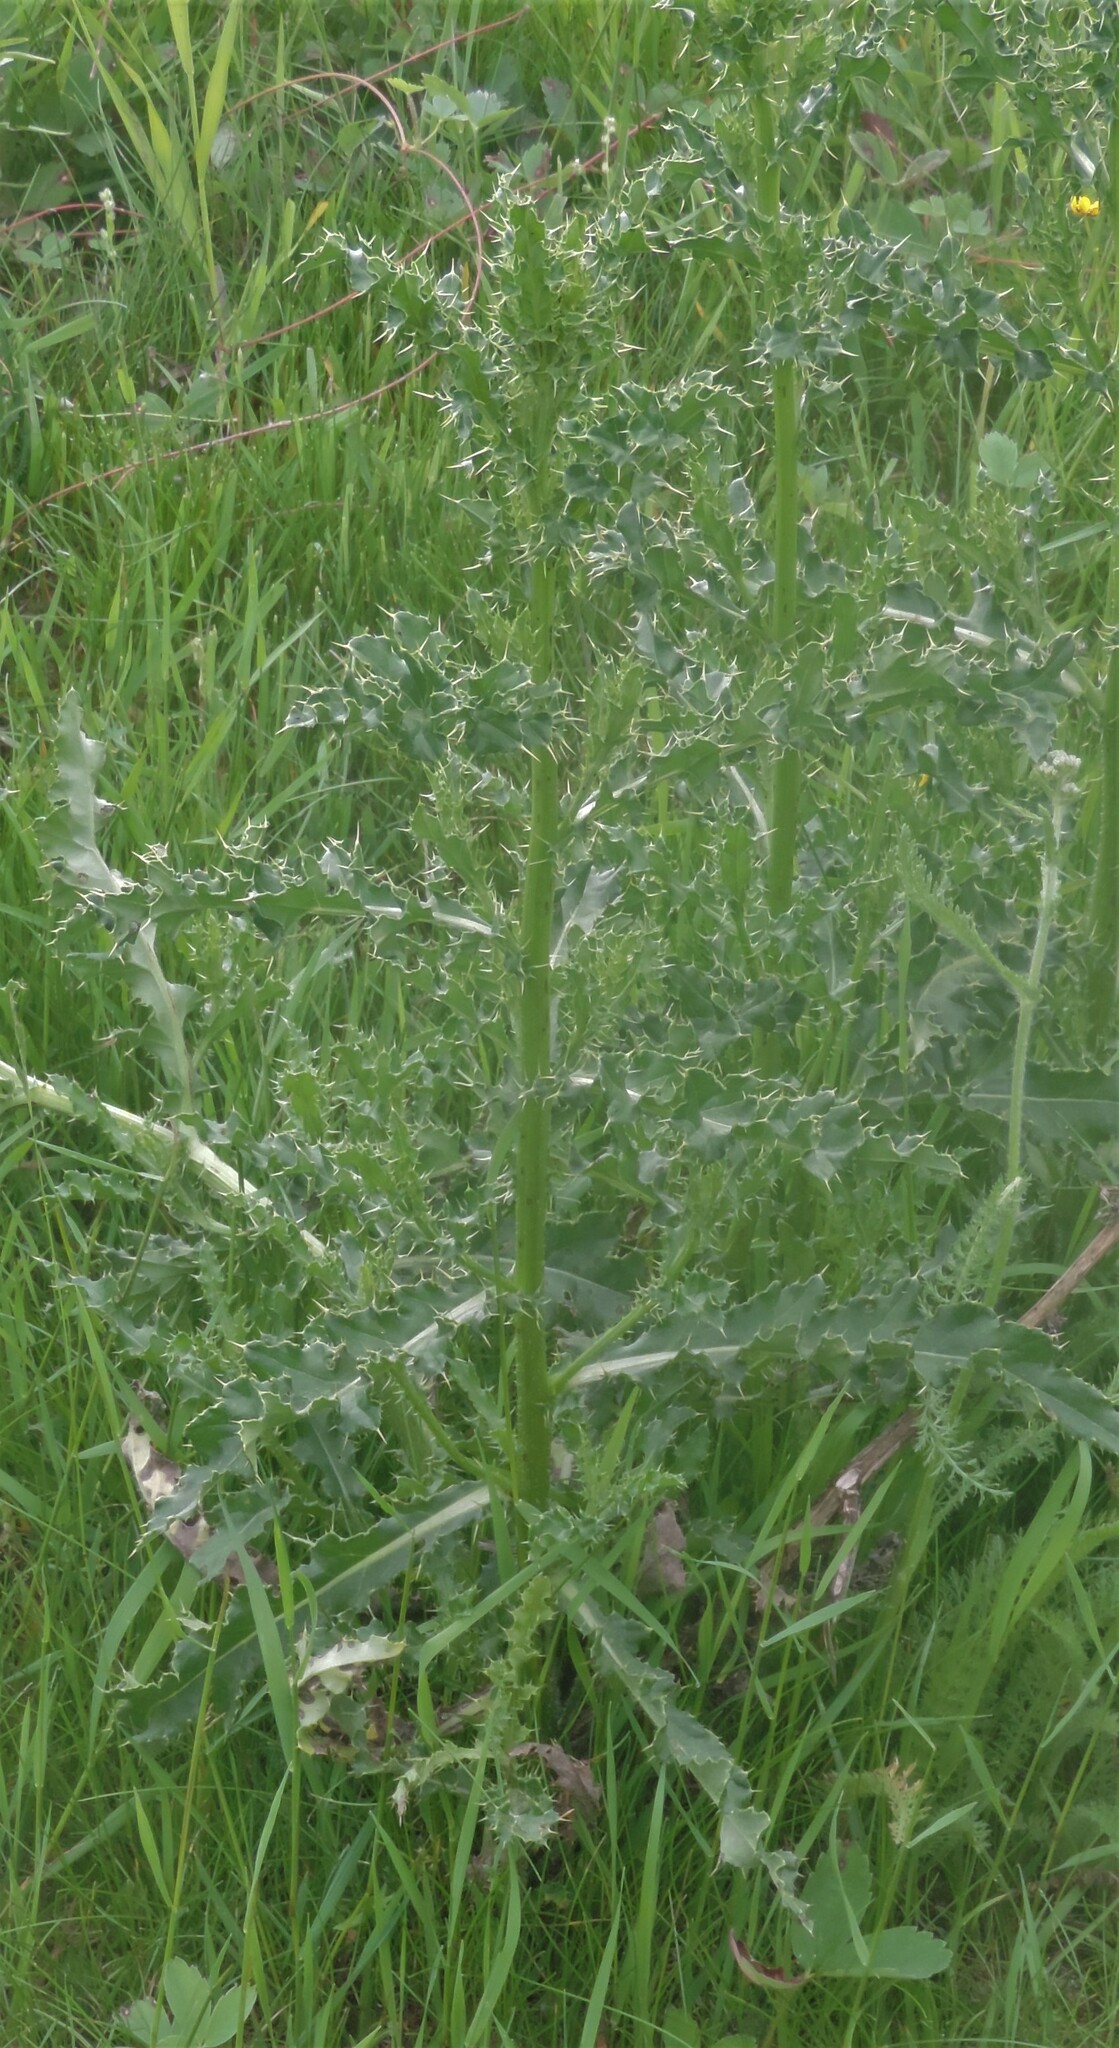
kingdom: Plantae
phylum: Tracheophyta
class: Magnoliopsida
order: Asterales
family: Asteraceae
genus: Cirsium
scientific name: Cirsium arvense
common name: Creeping thistle
